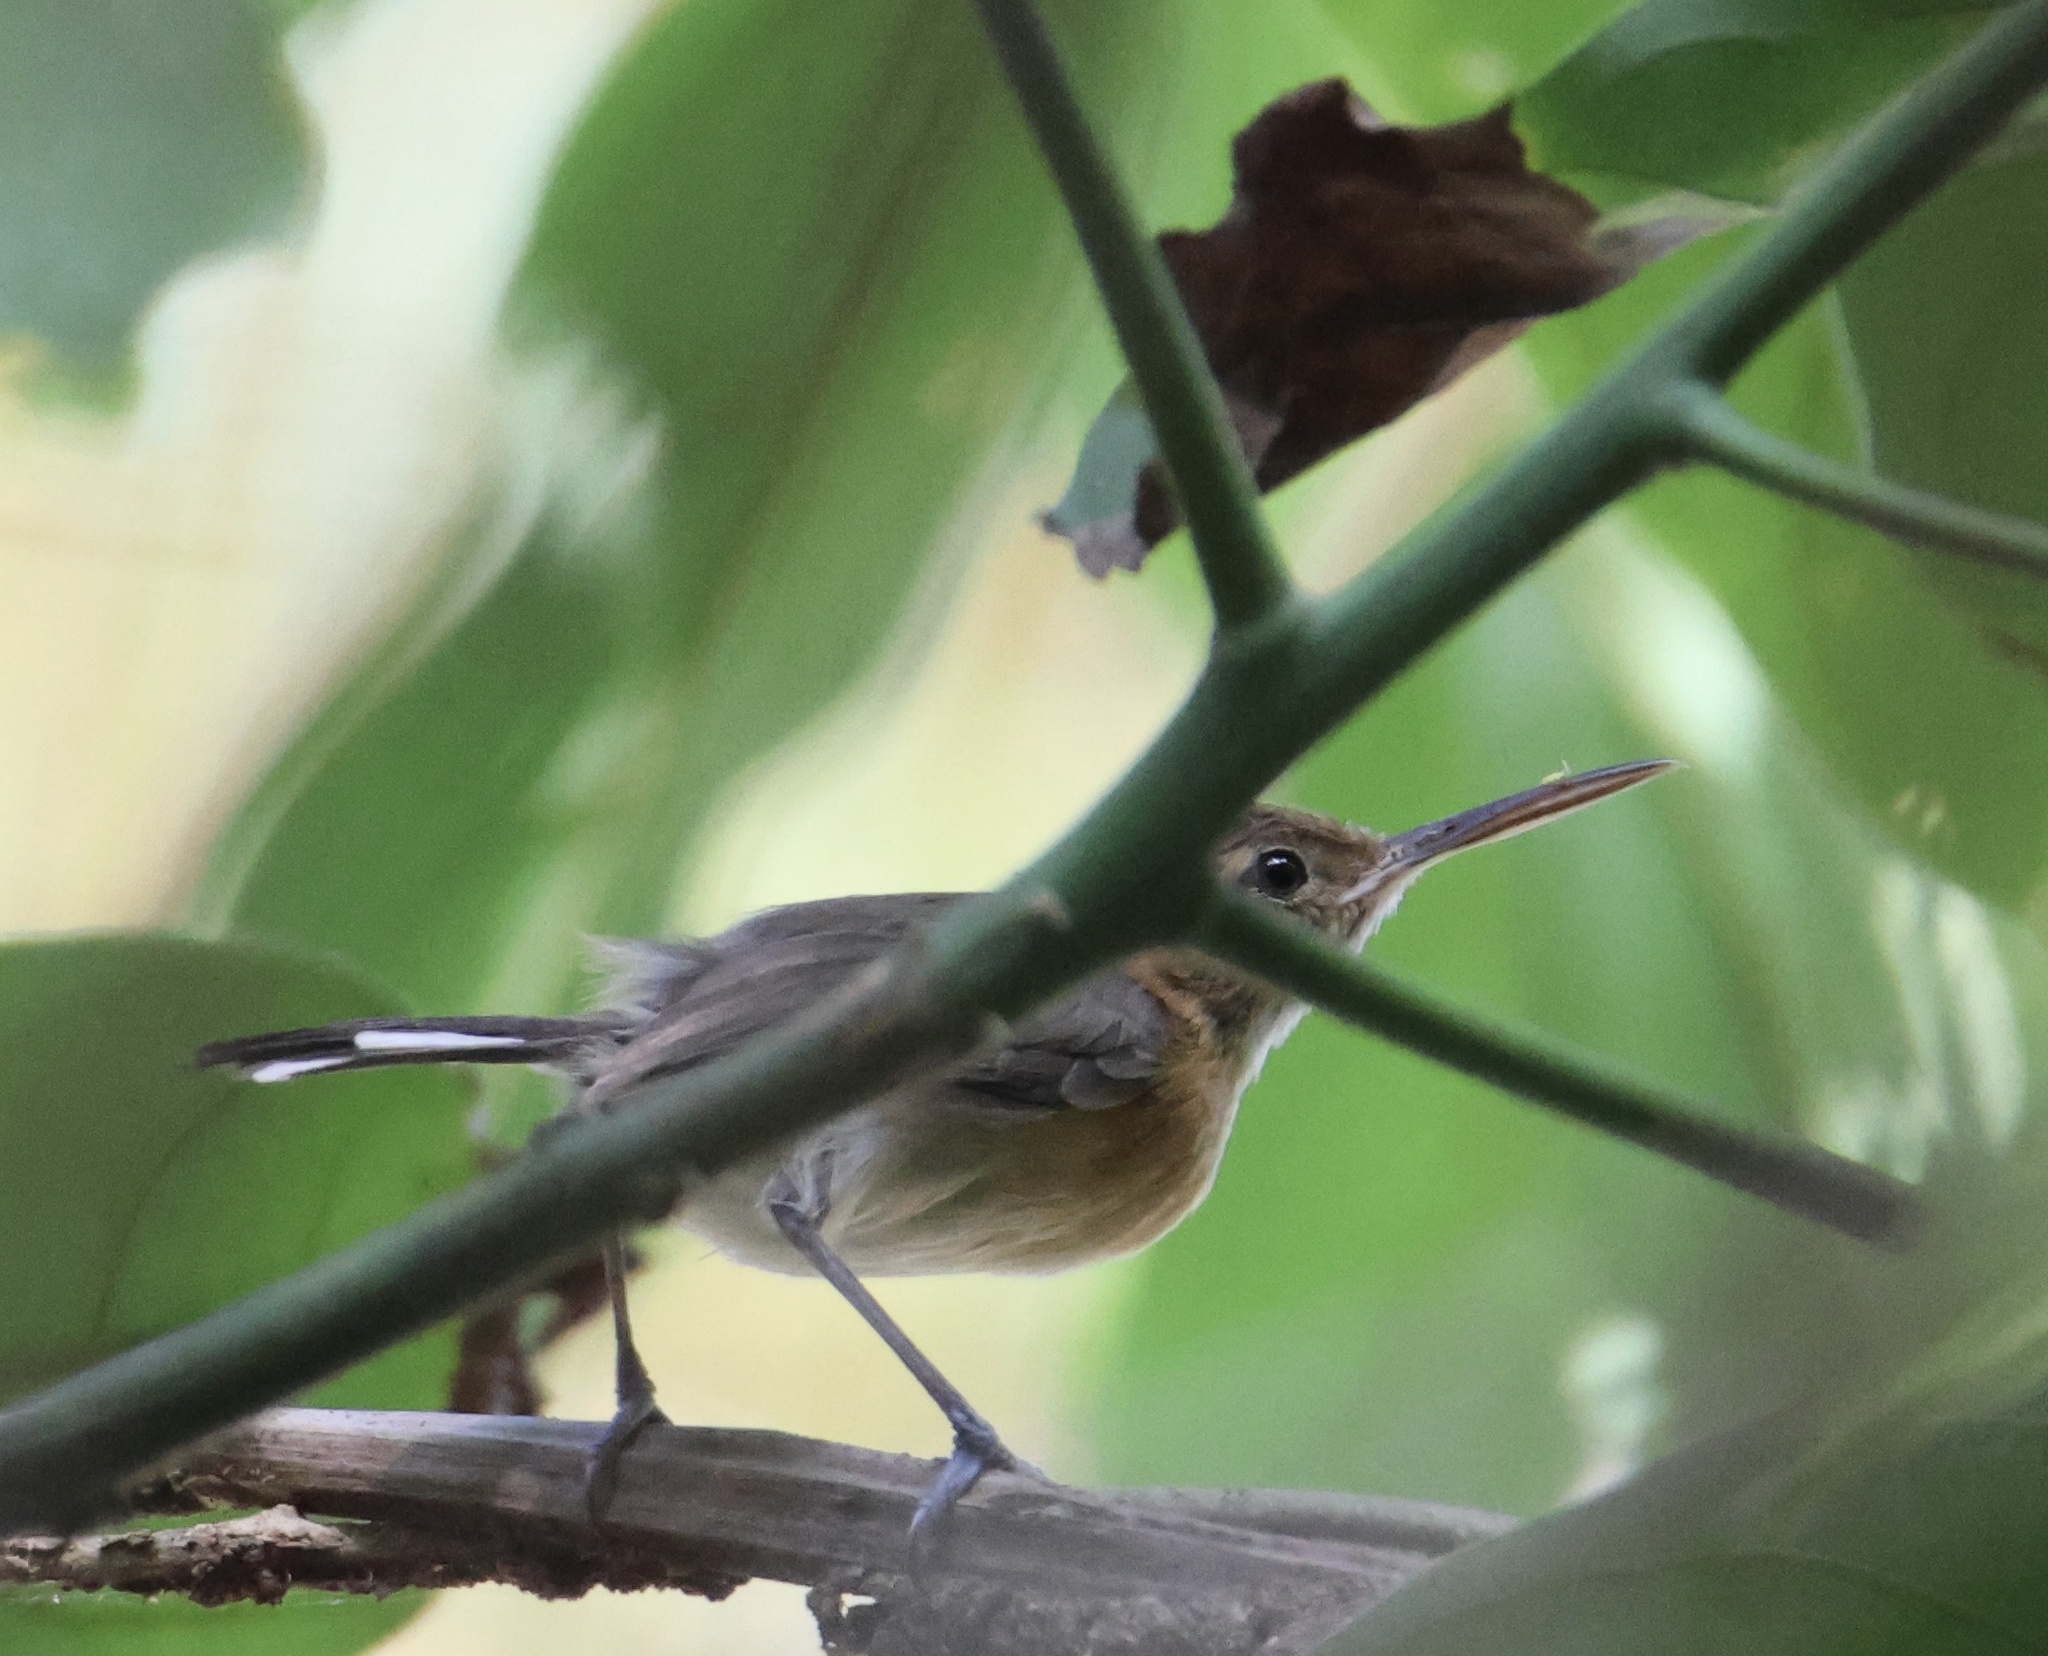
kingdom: Animalia
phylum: Chordata
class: Aves
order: Passeriformes
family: Polioptilidae
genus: Ramphocaenus
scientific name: Ramphocaenus melanurus
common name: Long-billed gnatwren
